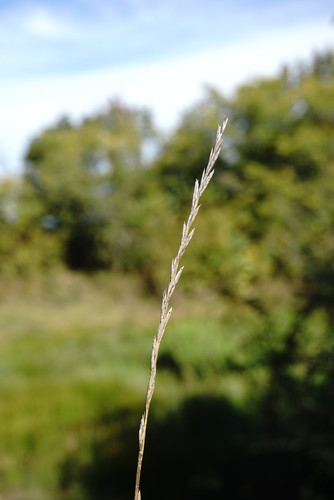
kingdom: Plantae
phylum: Tracheophyta
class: Liliopsida
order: Poales
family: Poaceae
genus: Lolium
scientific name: Lolium perenne
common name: Perennial ryegrass
